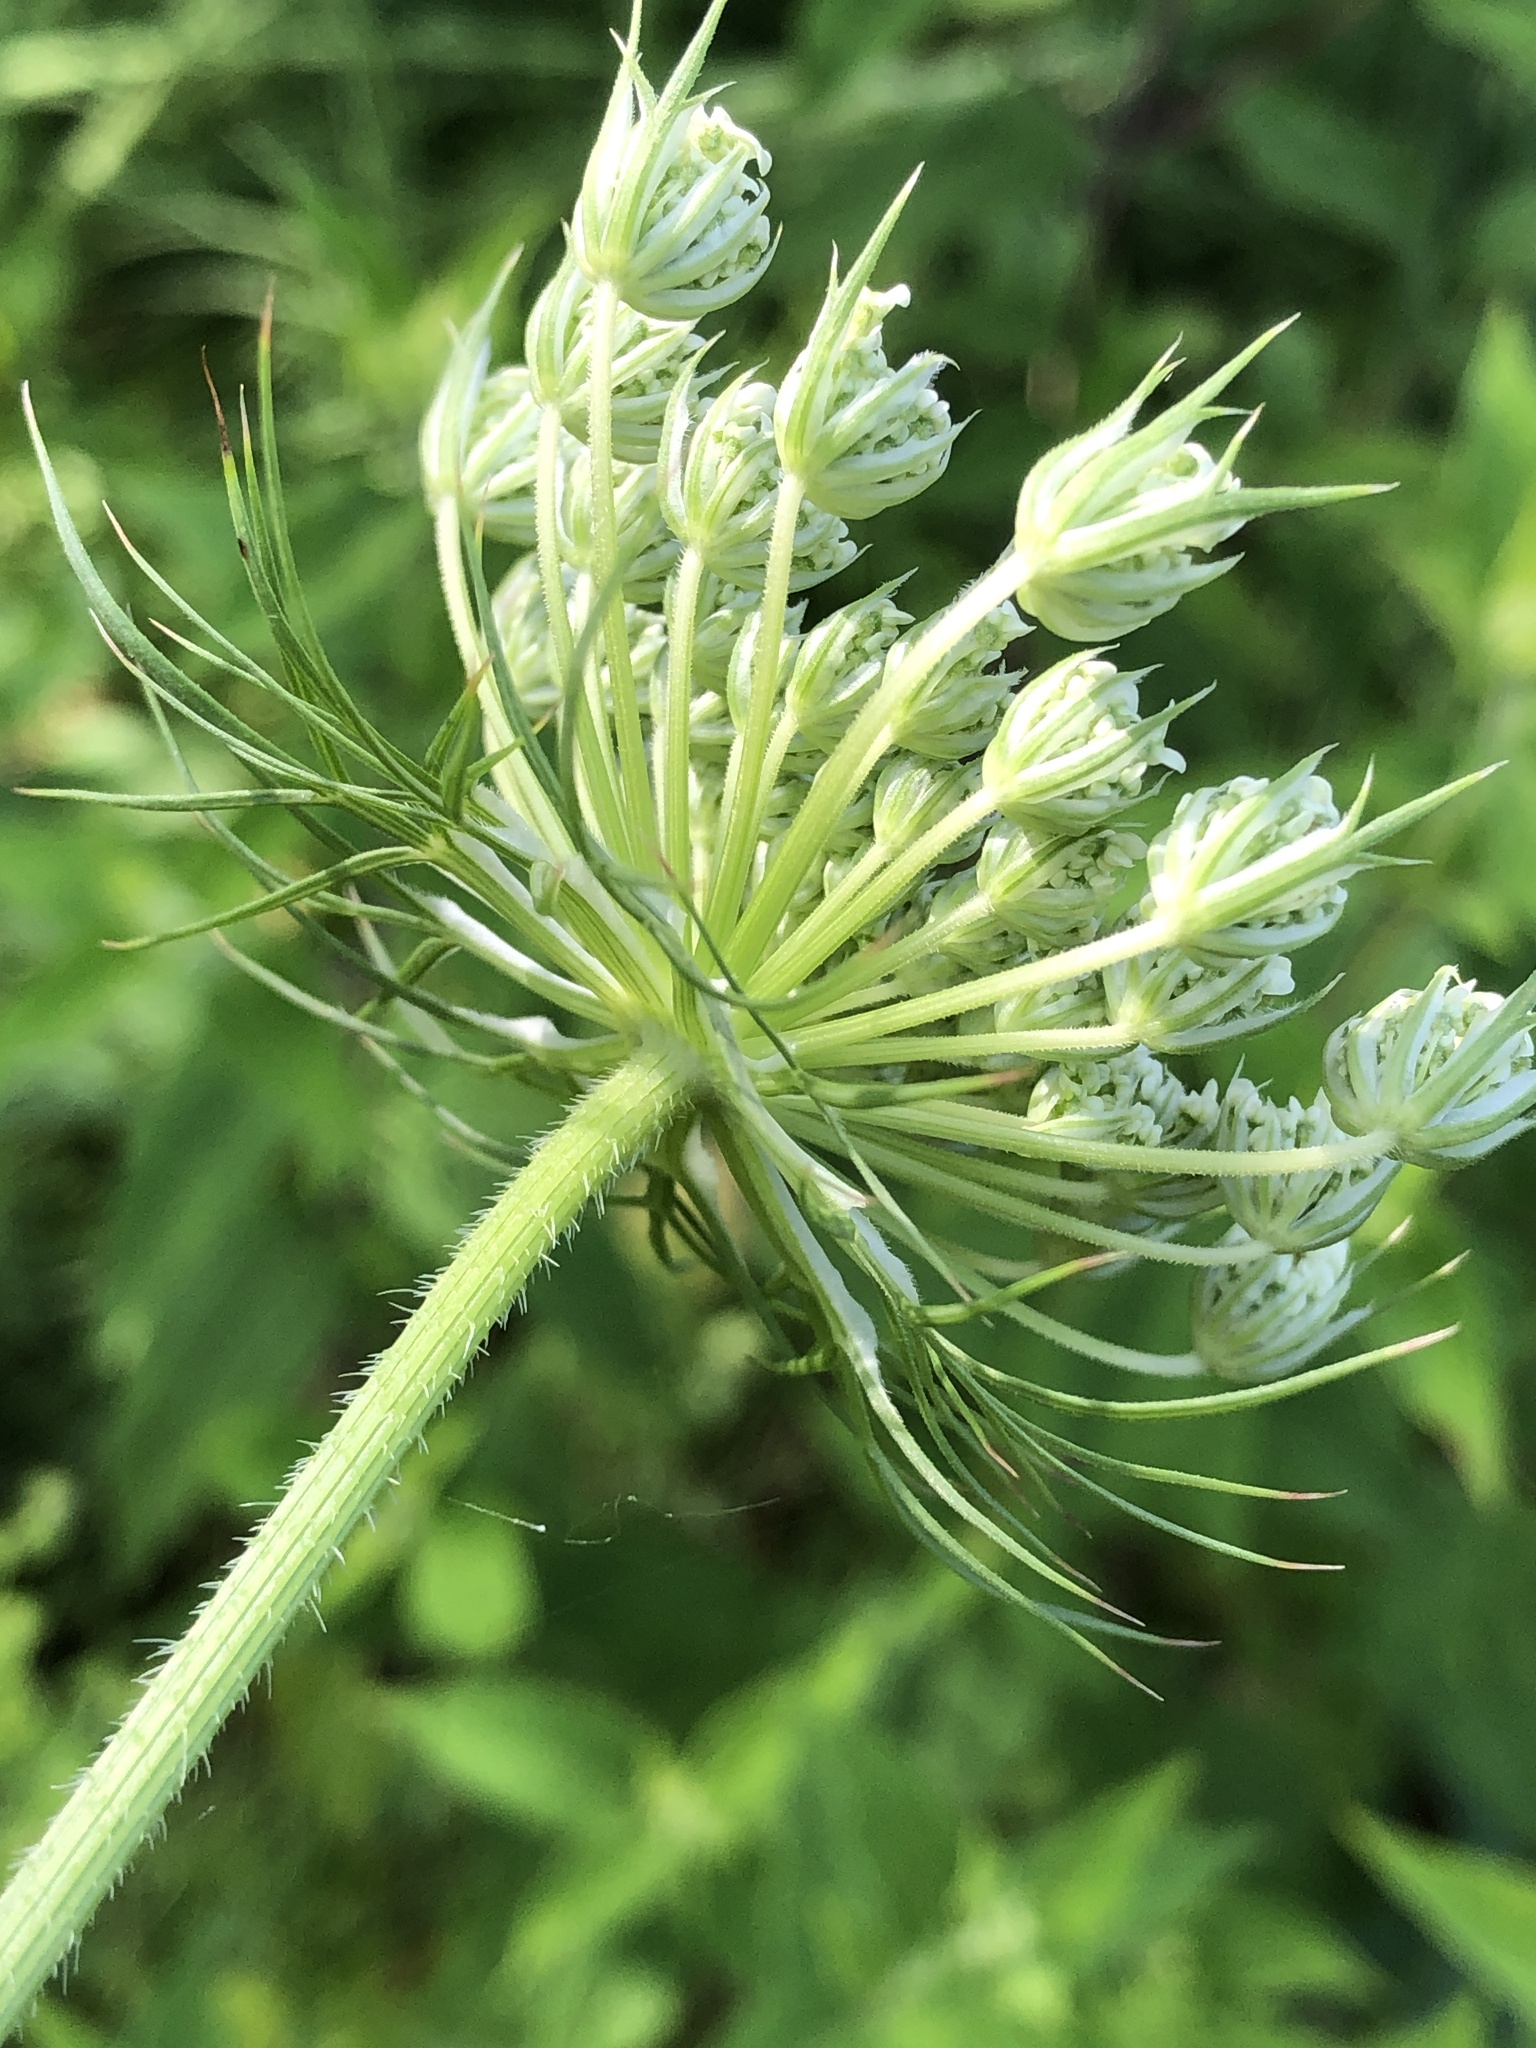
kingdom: Plantae
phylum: Tracheophyta
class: Magnoliopsida
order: Apiales
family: Apiaceae
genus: Daucus
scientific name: Daucus carota
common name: Wild carrot
